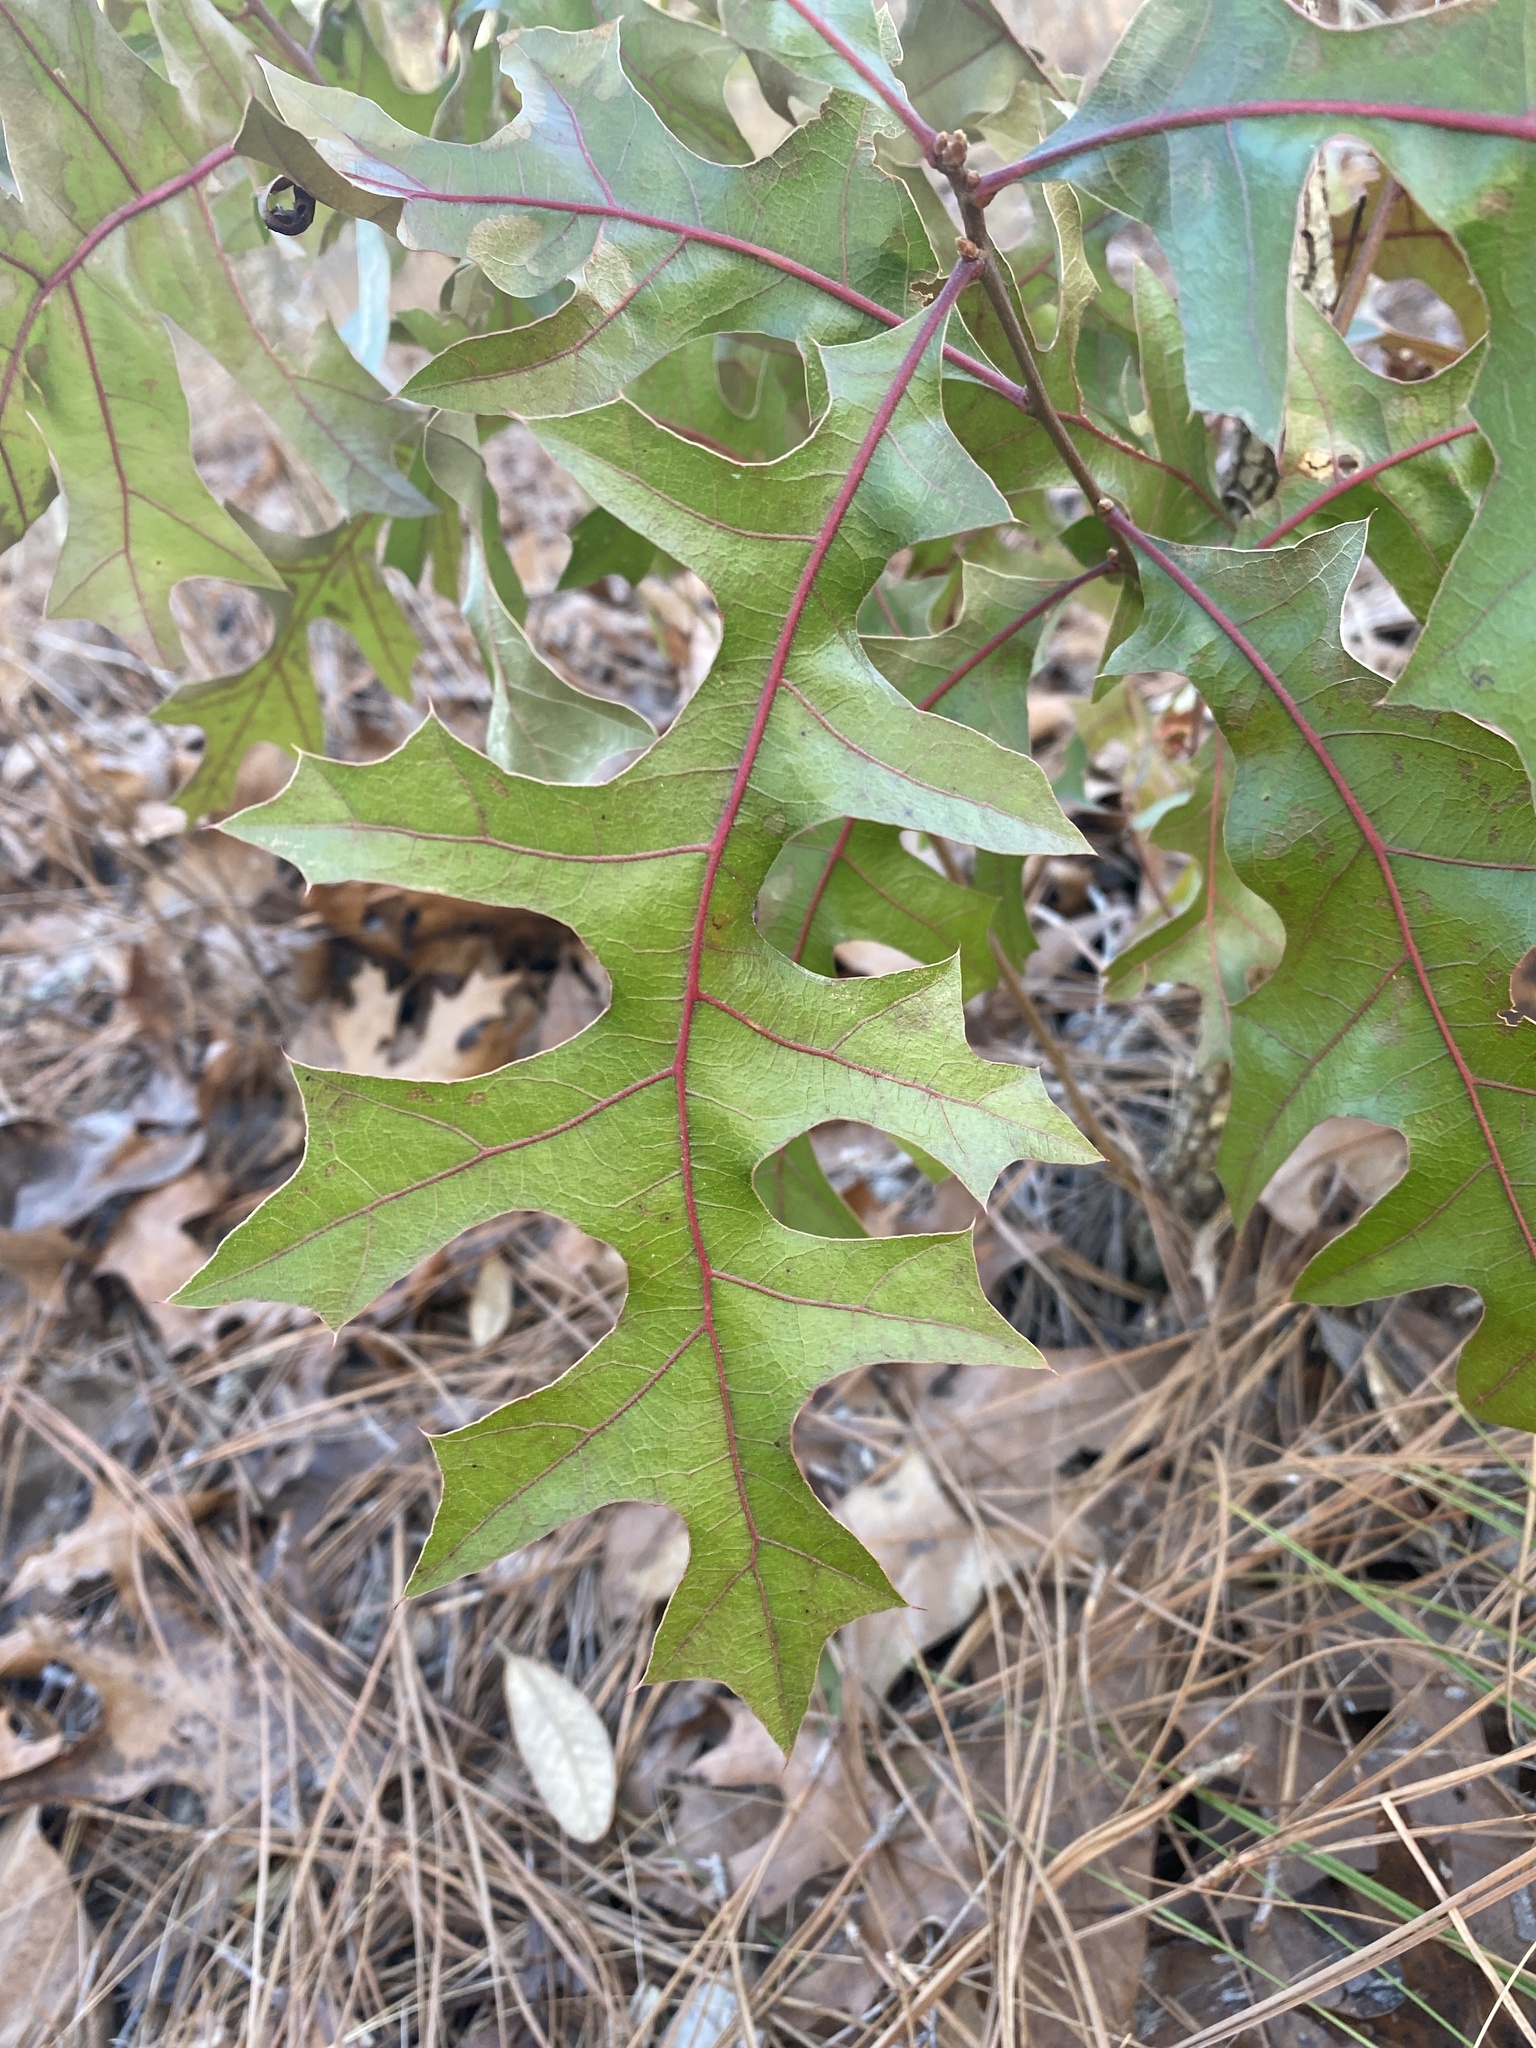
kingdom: Plantae
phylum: Tracheophyta
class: Magnoliopsida
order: Fagales
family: Fagaceae
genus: Quercus
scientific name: Quercus laevis
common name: Turkey oak
